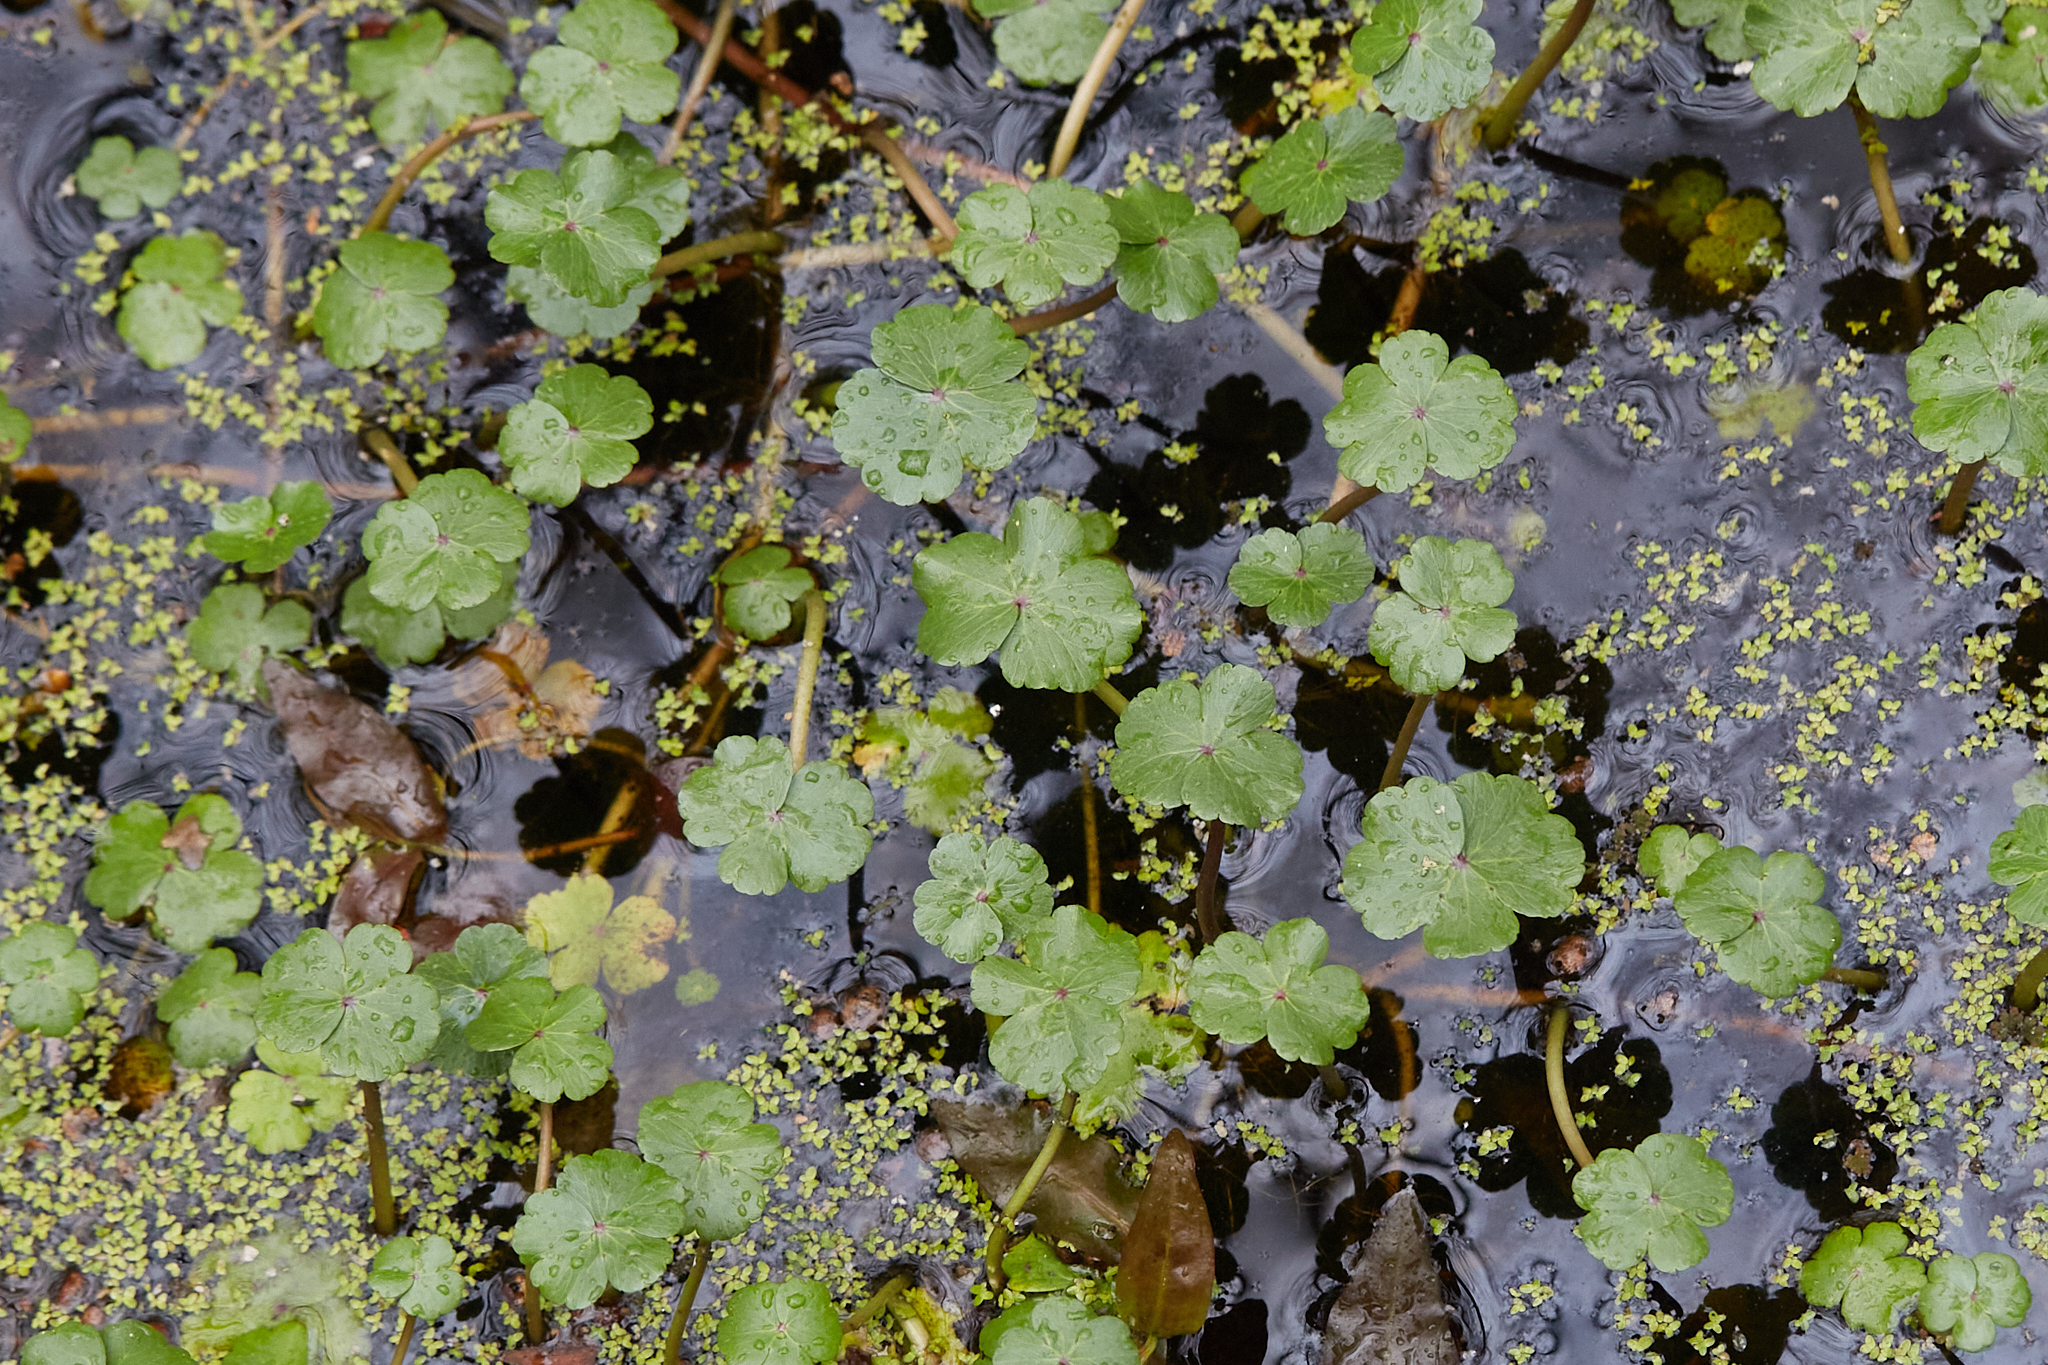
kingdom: Plantae
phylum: Tracheophyta
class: Magnoliopsida
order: Apiales
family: Araliaceae
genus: Hydrocotyle
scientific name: Hydrocotyle ranunculoides
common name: Floating pennywort
